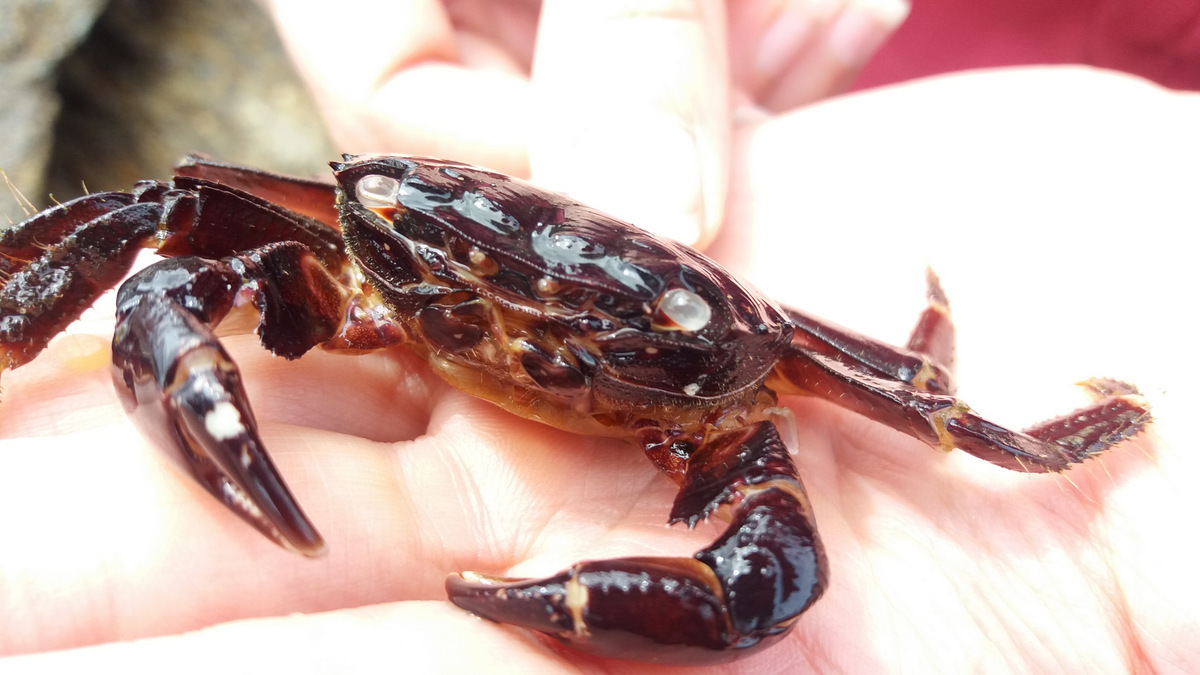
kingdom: Animalia
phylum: Arthropoda
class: Malacostraca
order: Decapoda
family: Grapsidae
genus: Pachygrapsus
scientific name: Pachygrapsus marmoratus
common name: Marbled rock crab
